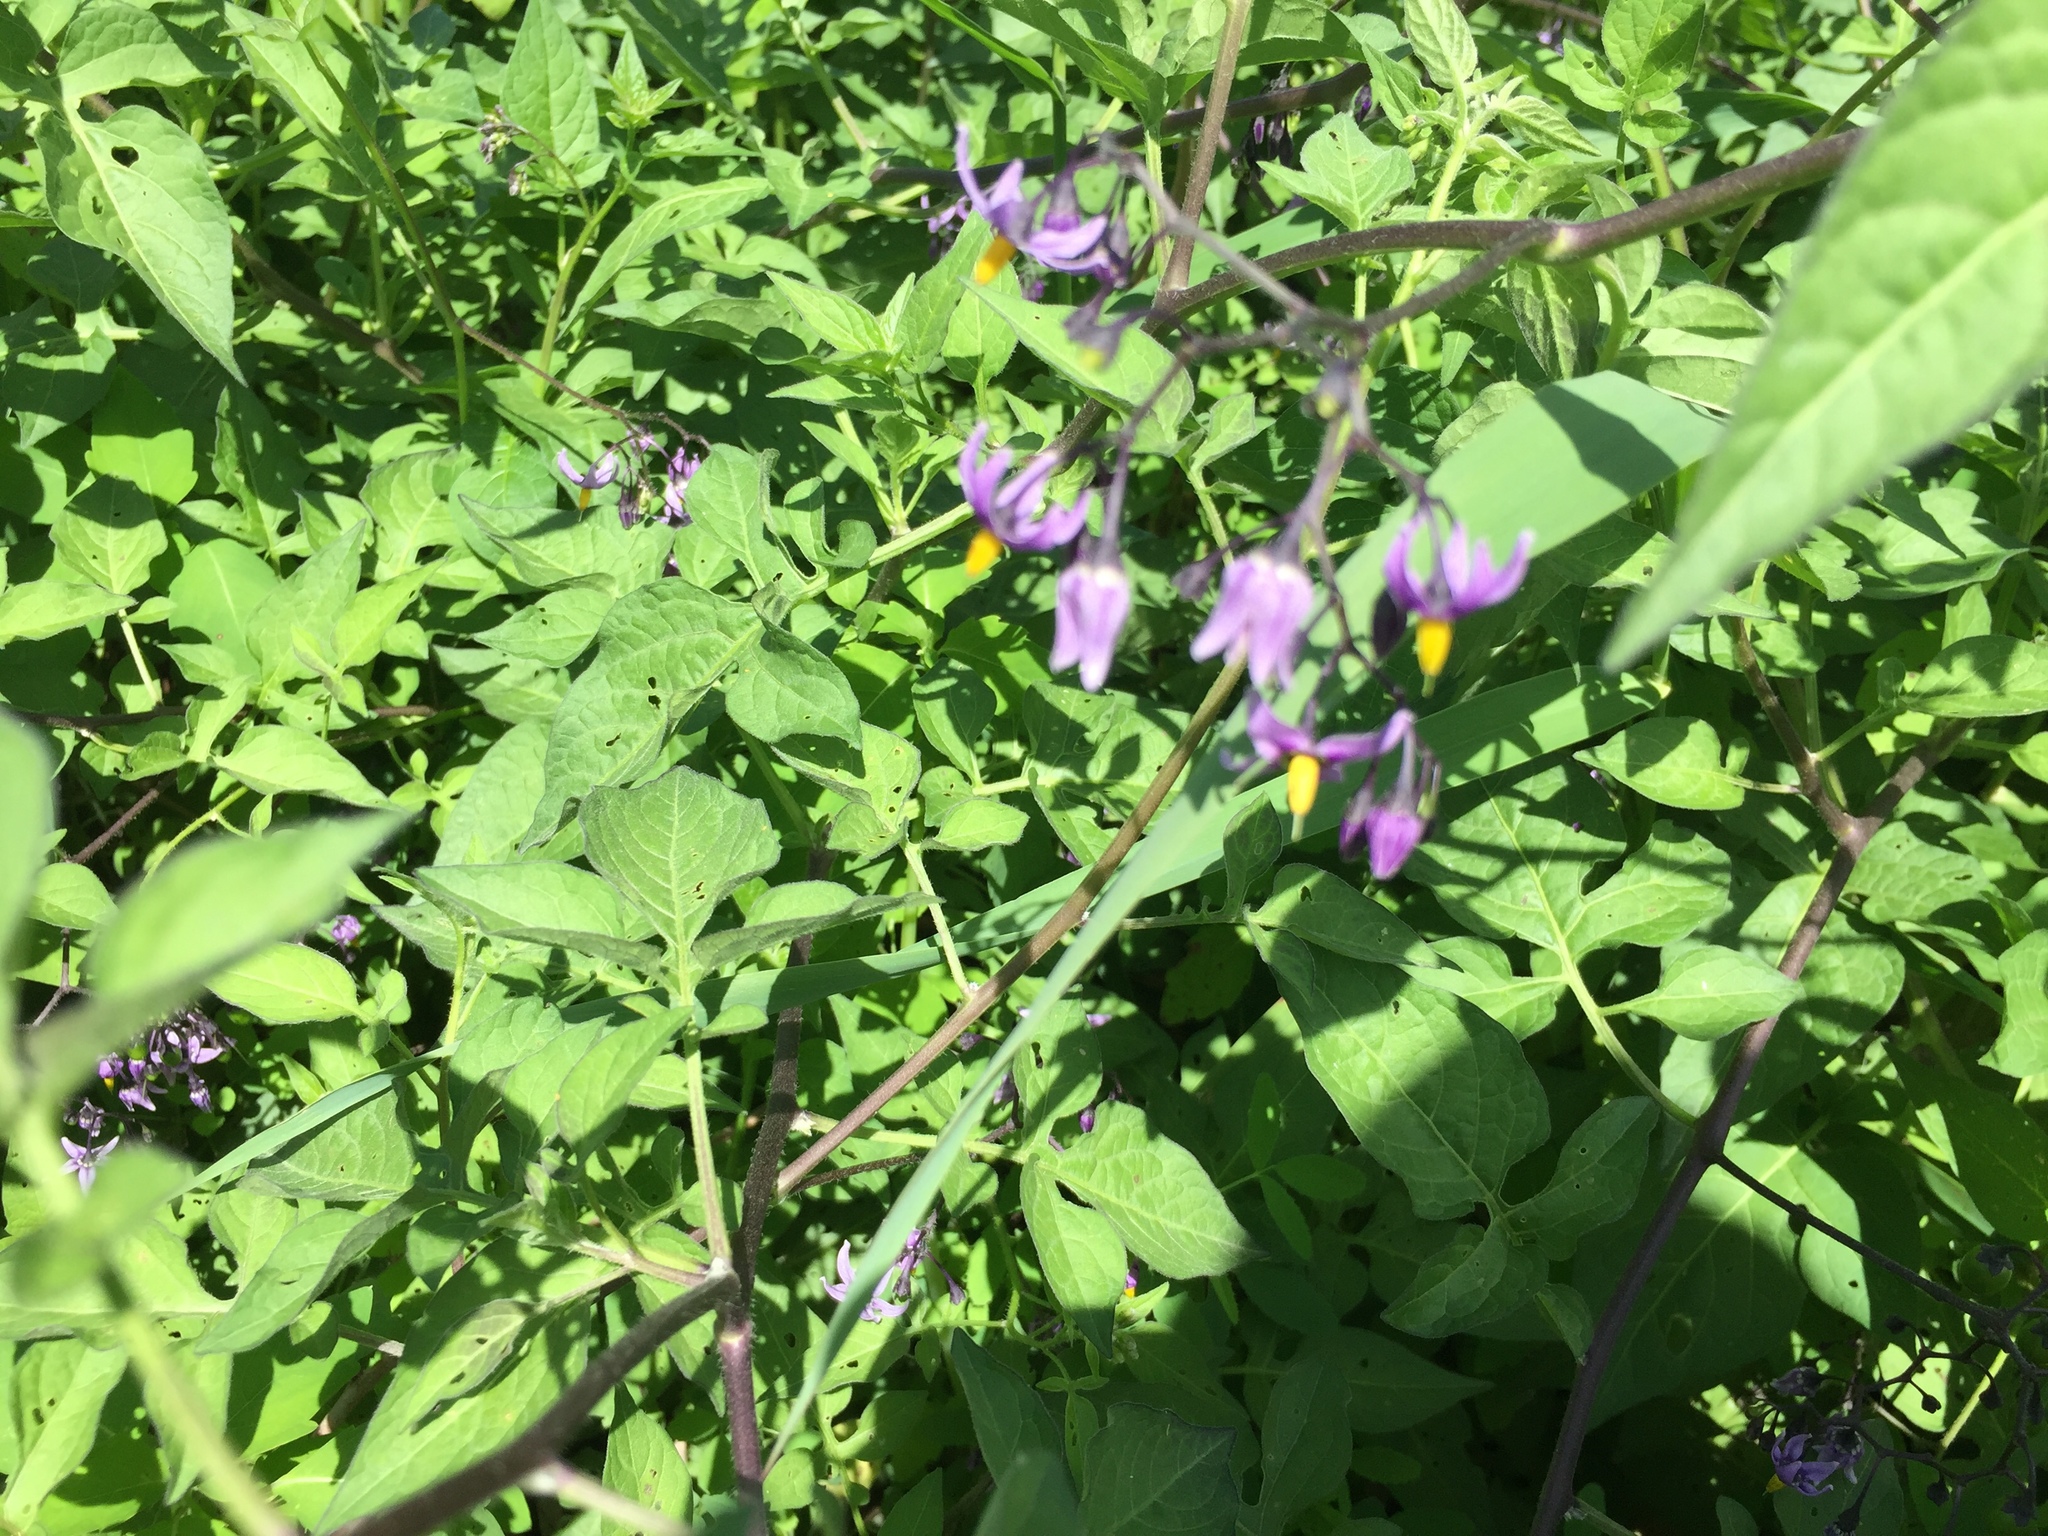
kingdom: Plantae
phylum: Tracheophyta
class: Magnoliopsida
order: Solanales
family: Solanaceae
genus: Solanum
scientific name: Solanum dulcamara
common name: Climbing nightshade
